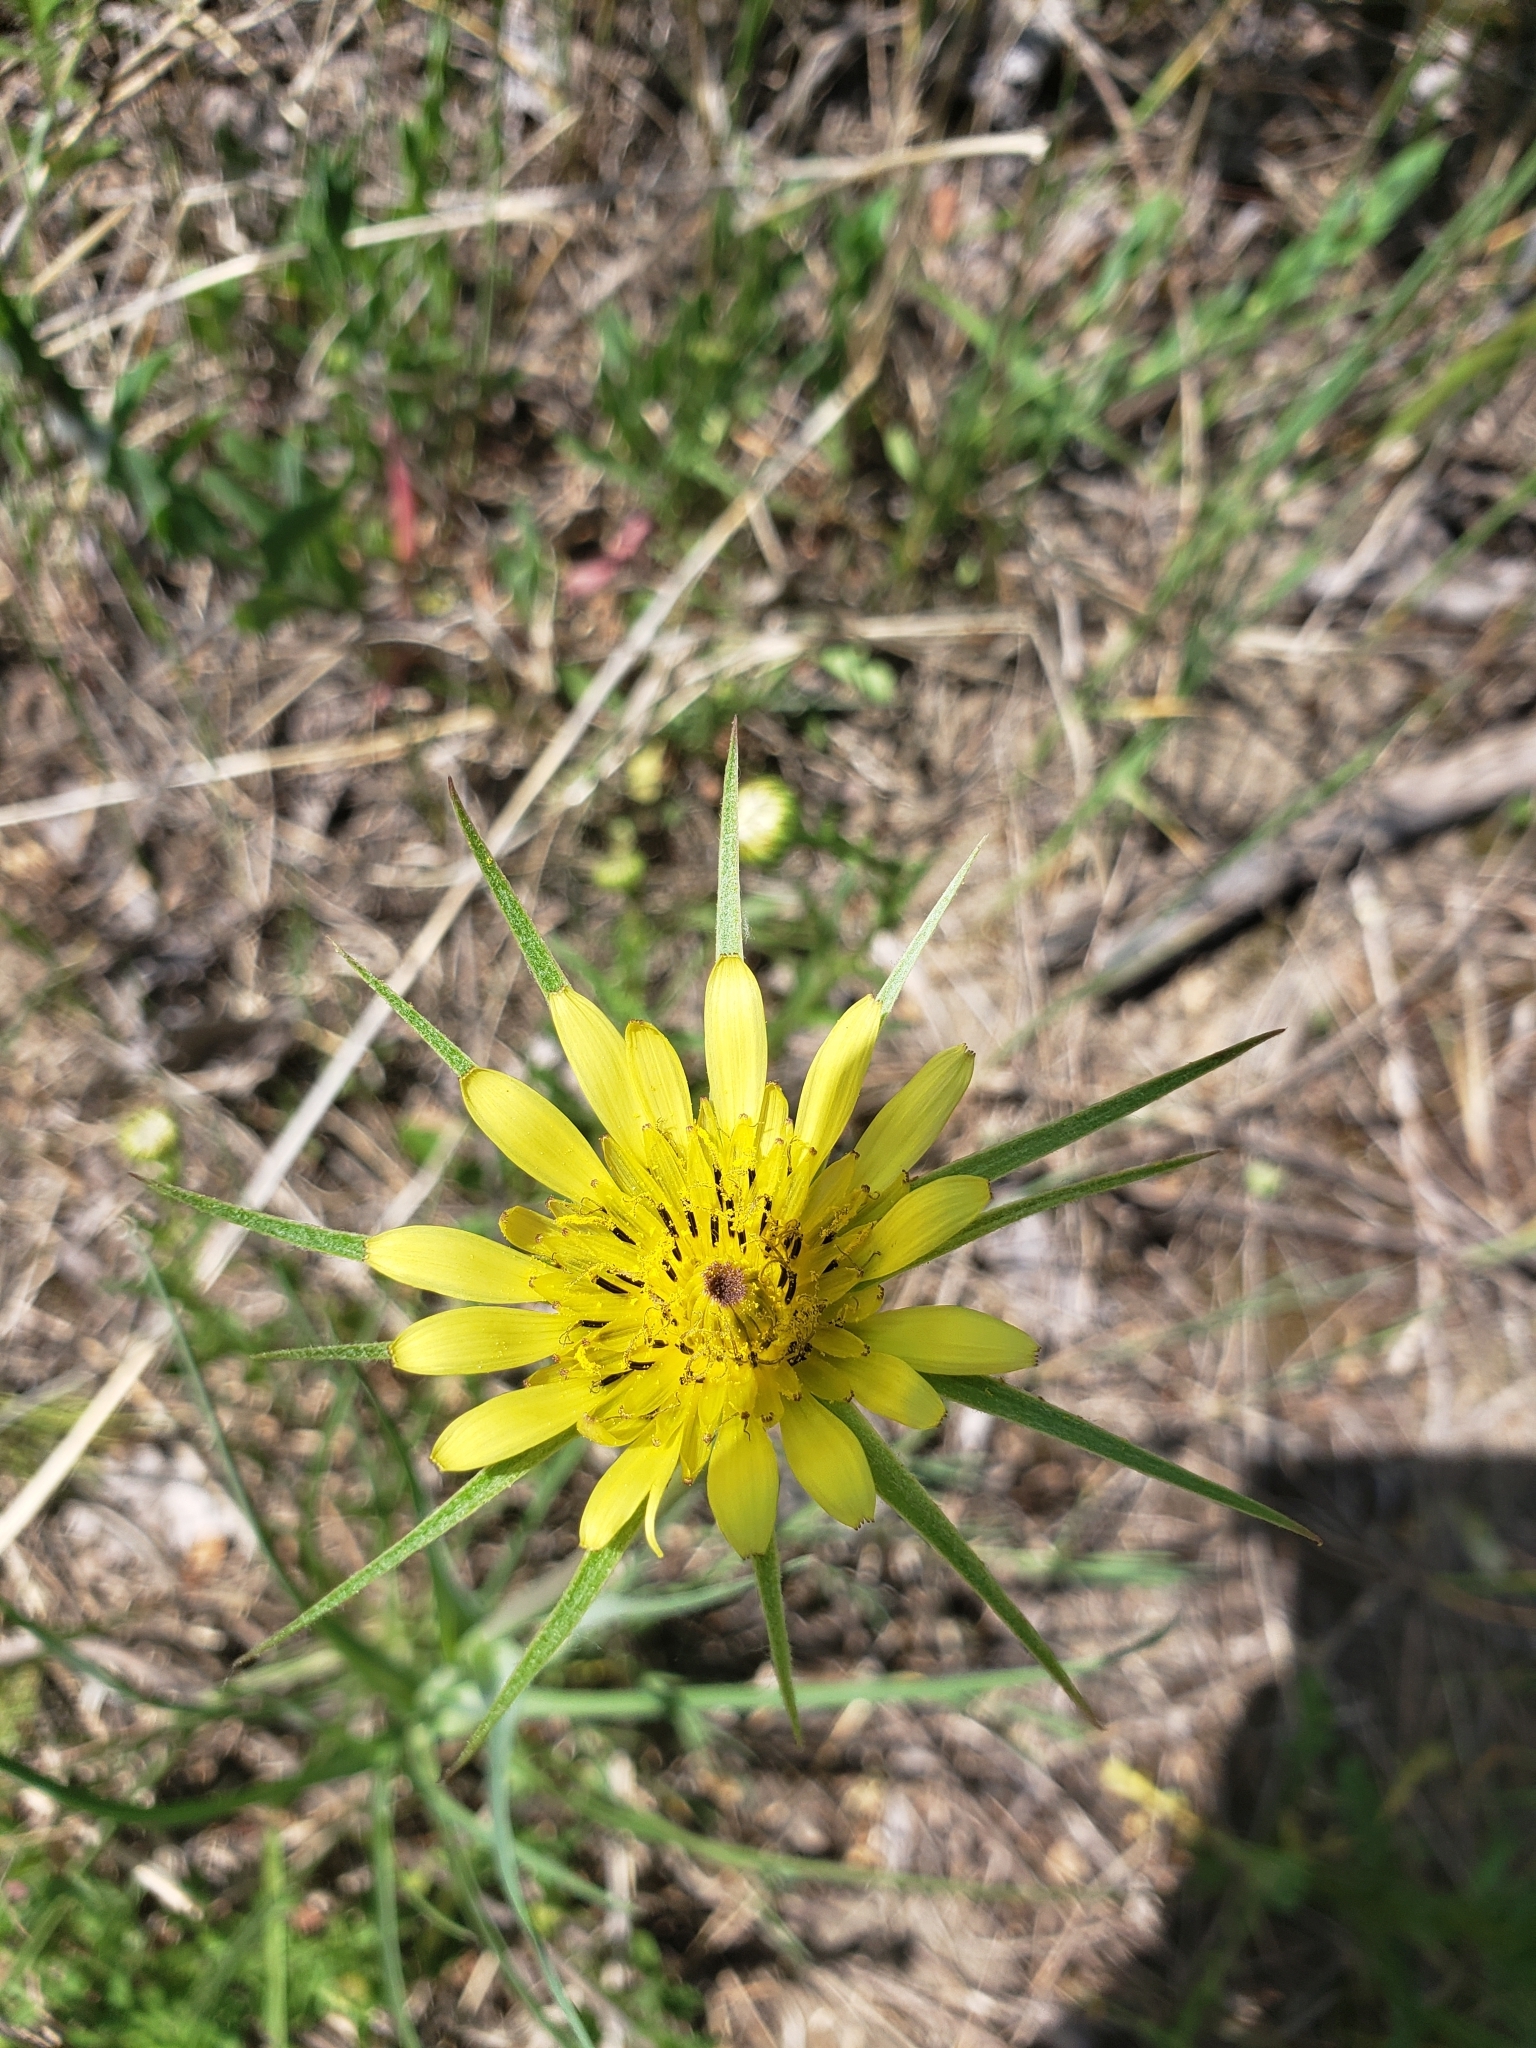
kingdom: Plantae
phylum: Tracheophyta
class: Magnoliopsida
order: Asterales
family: Asteraceae
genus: Tragopogon
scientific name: Tragopogon dubius
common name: Yellow salsify
